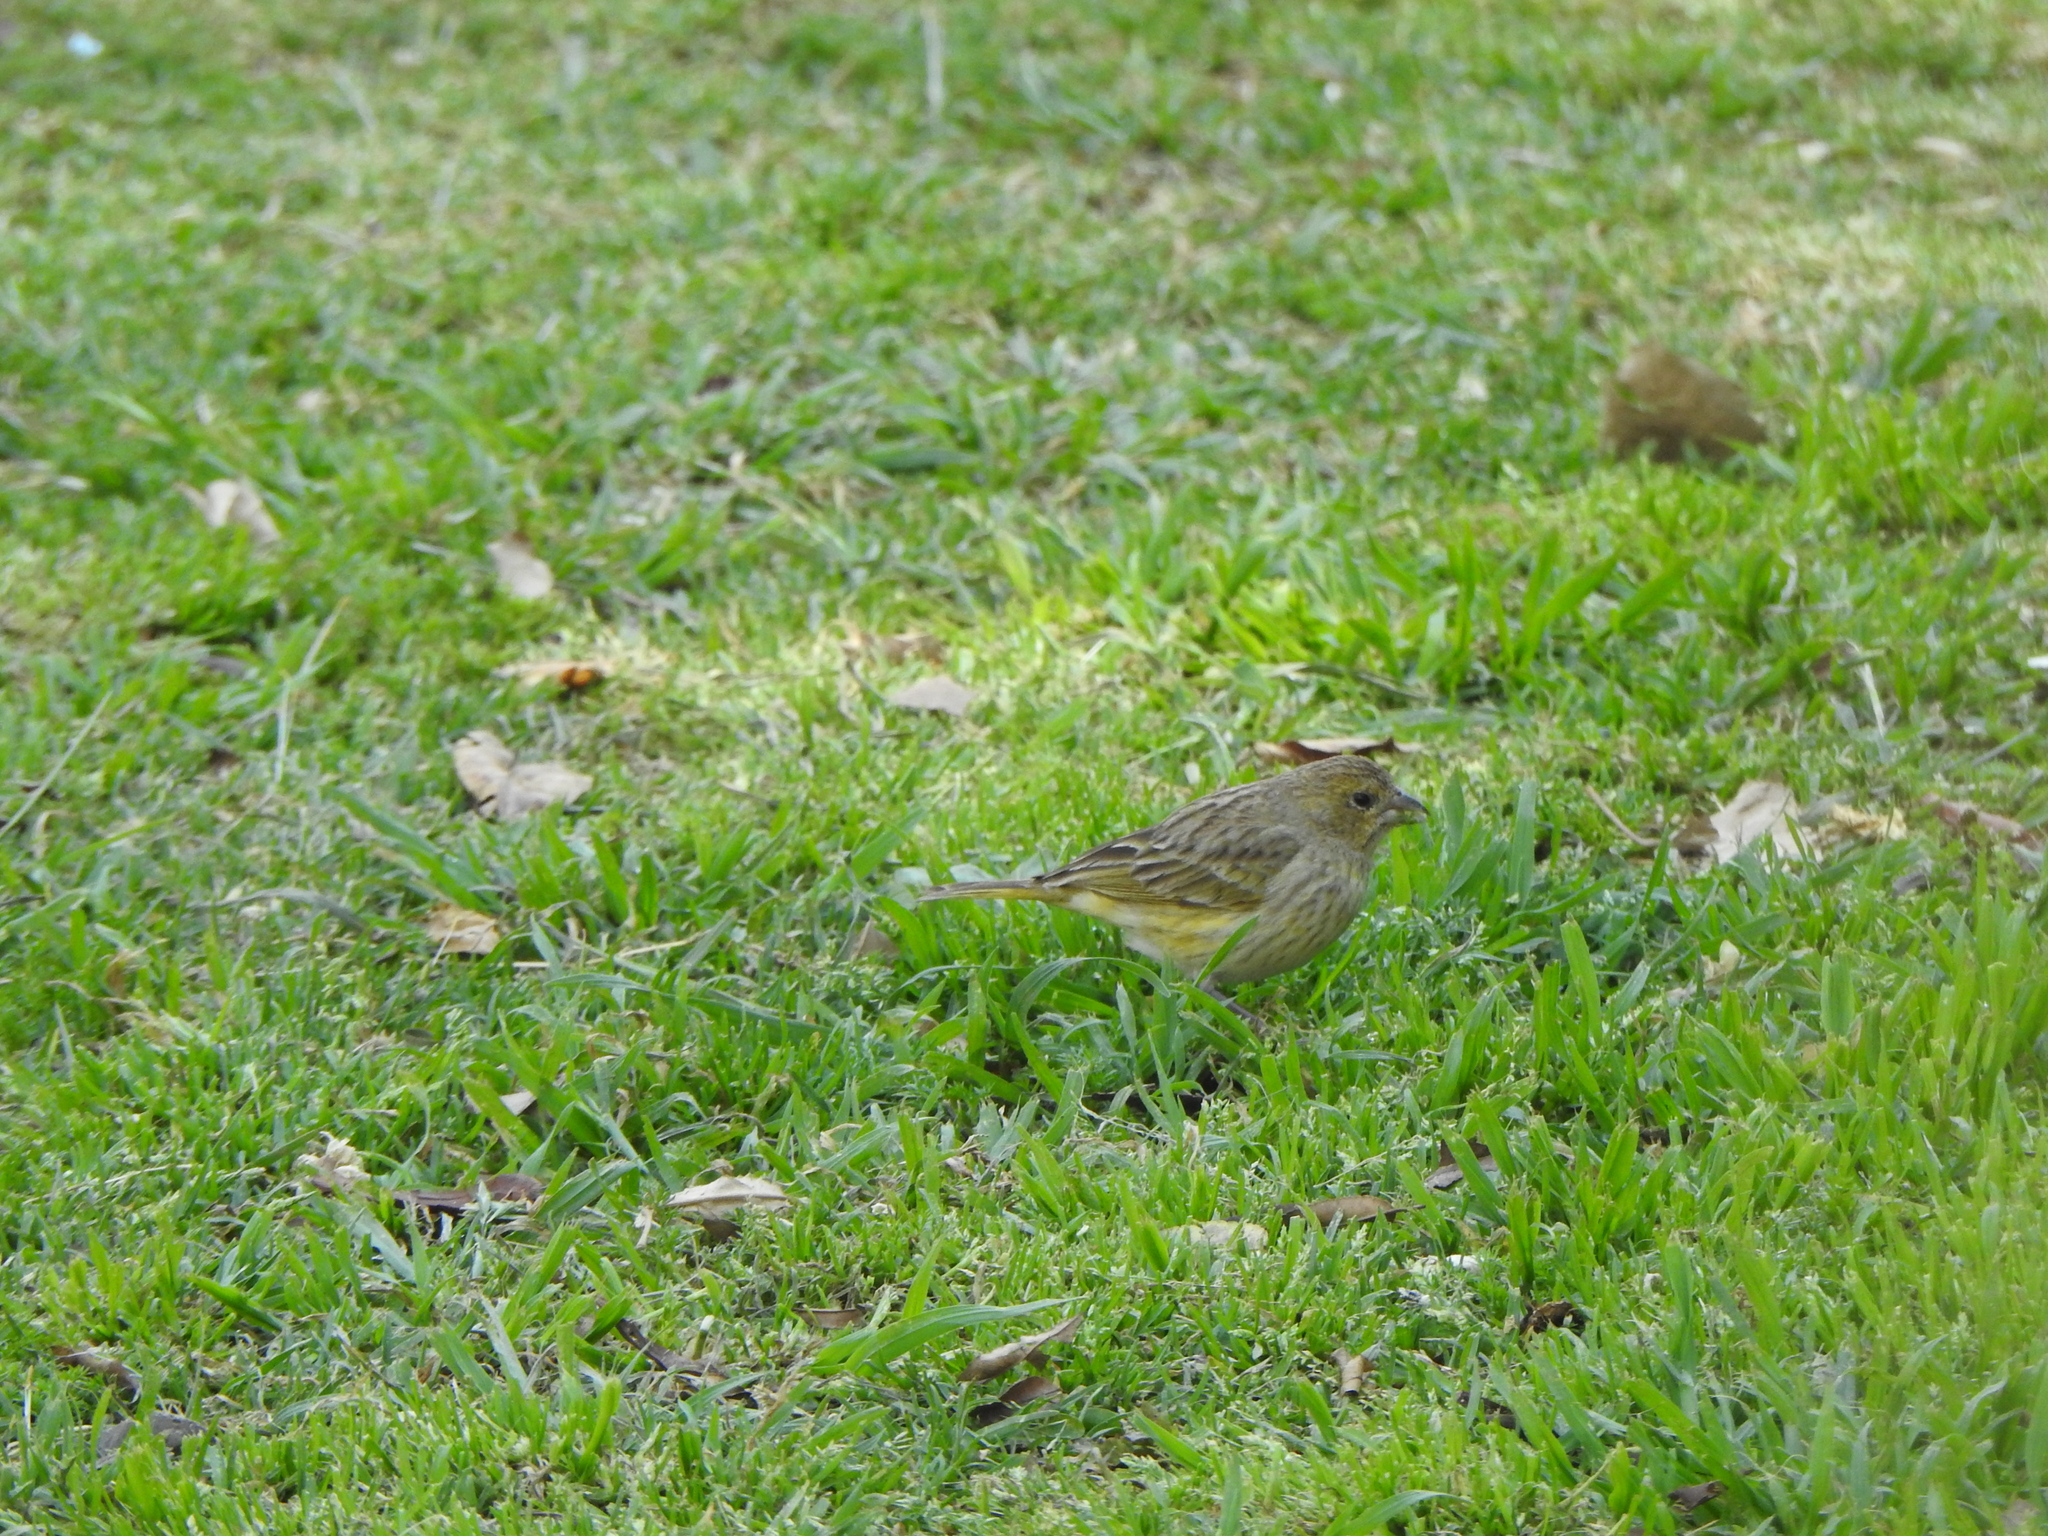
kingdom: Animalia
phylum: Chordata
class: Aves
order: Passeriformes
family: Thraupidae
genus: Sicalis
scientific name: Sicalis flaveola
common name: Saffron finch
